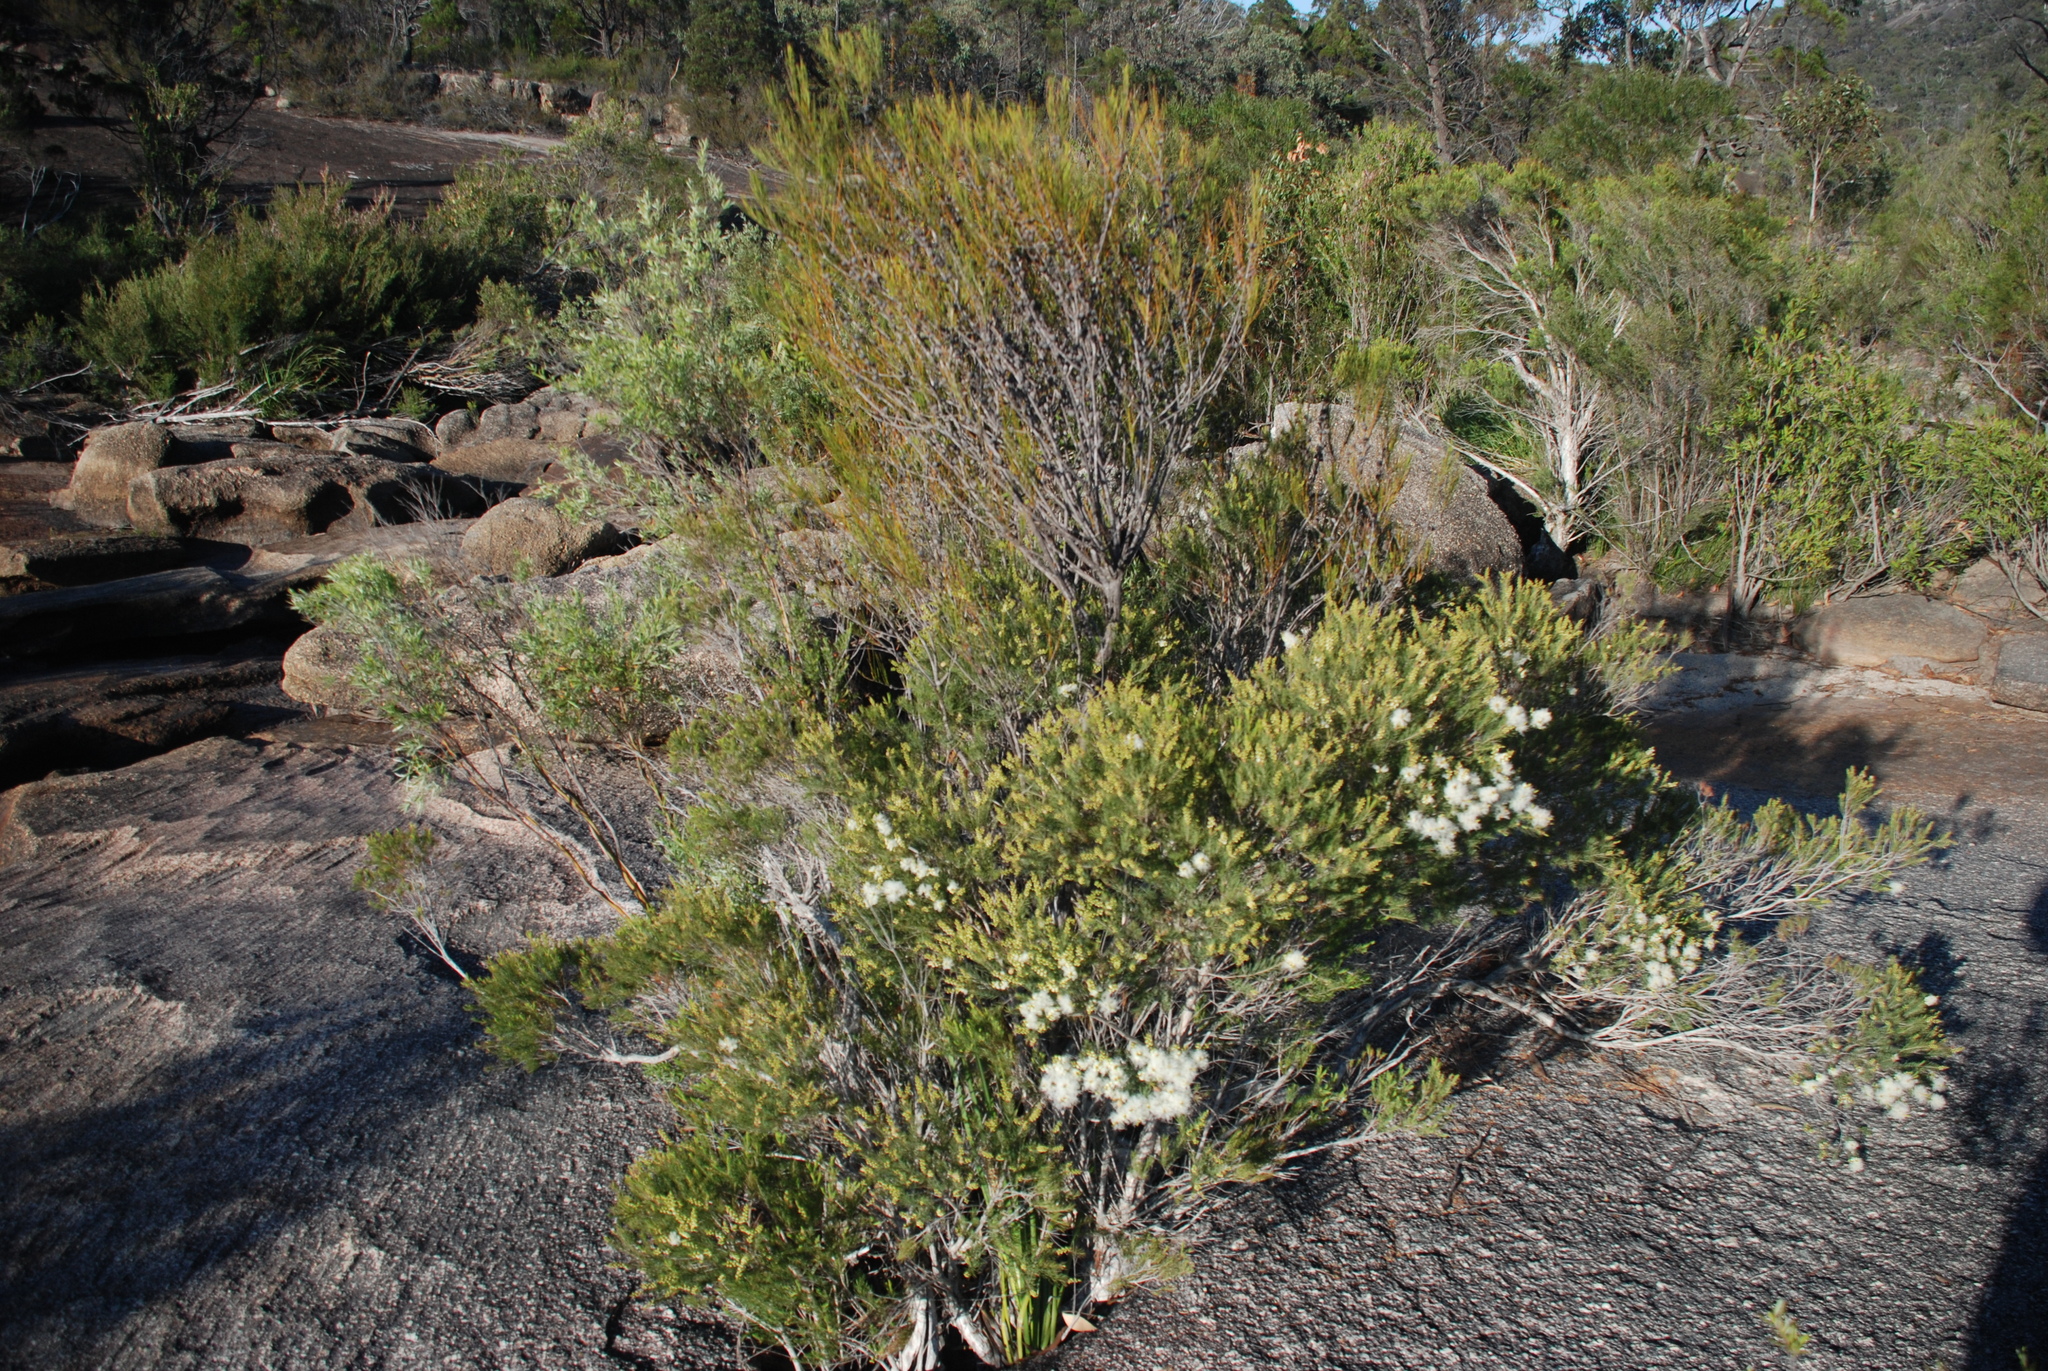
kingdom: Plantae
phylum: Tracheophyta
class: Magnoliopsida
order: Myrtales
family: Myrtaceae
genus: Melaleuca
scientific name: Melaleuca alternifolia
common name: Narrow-leaf paperbark
